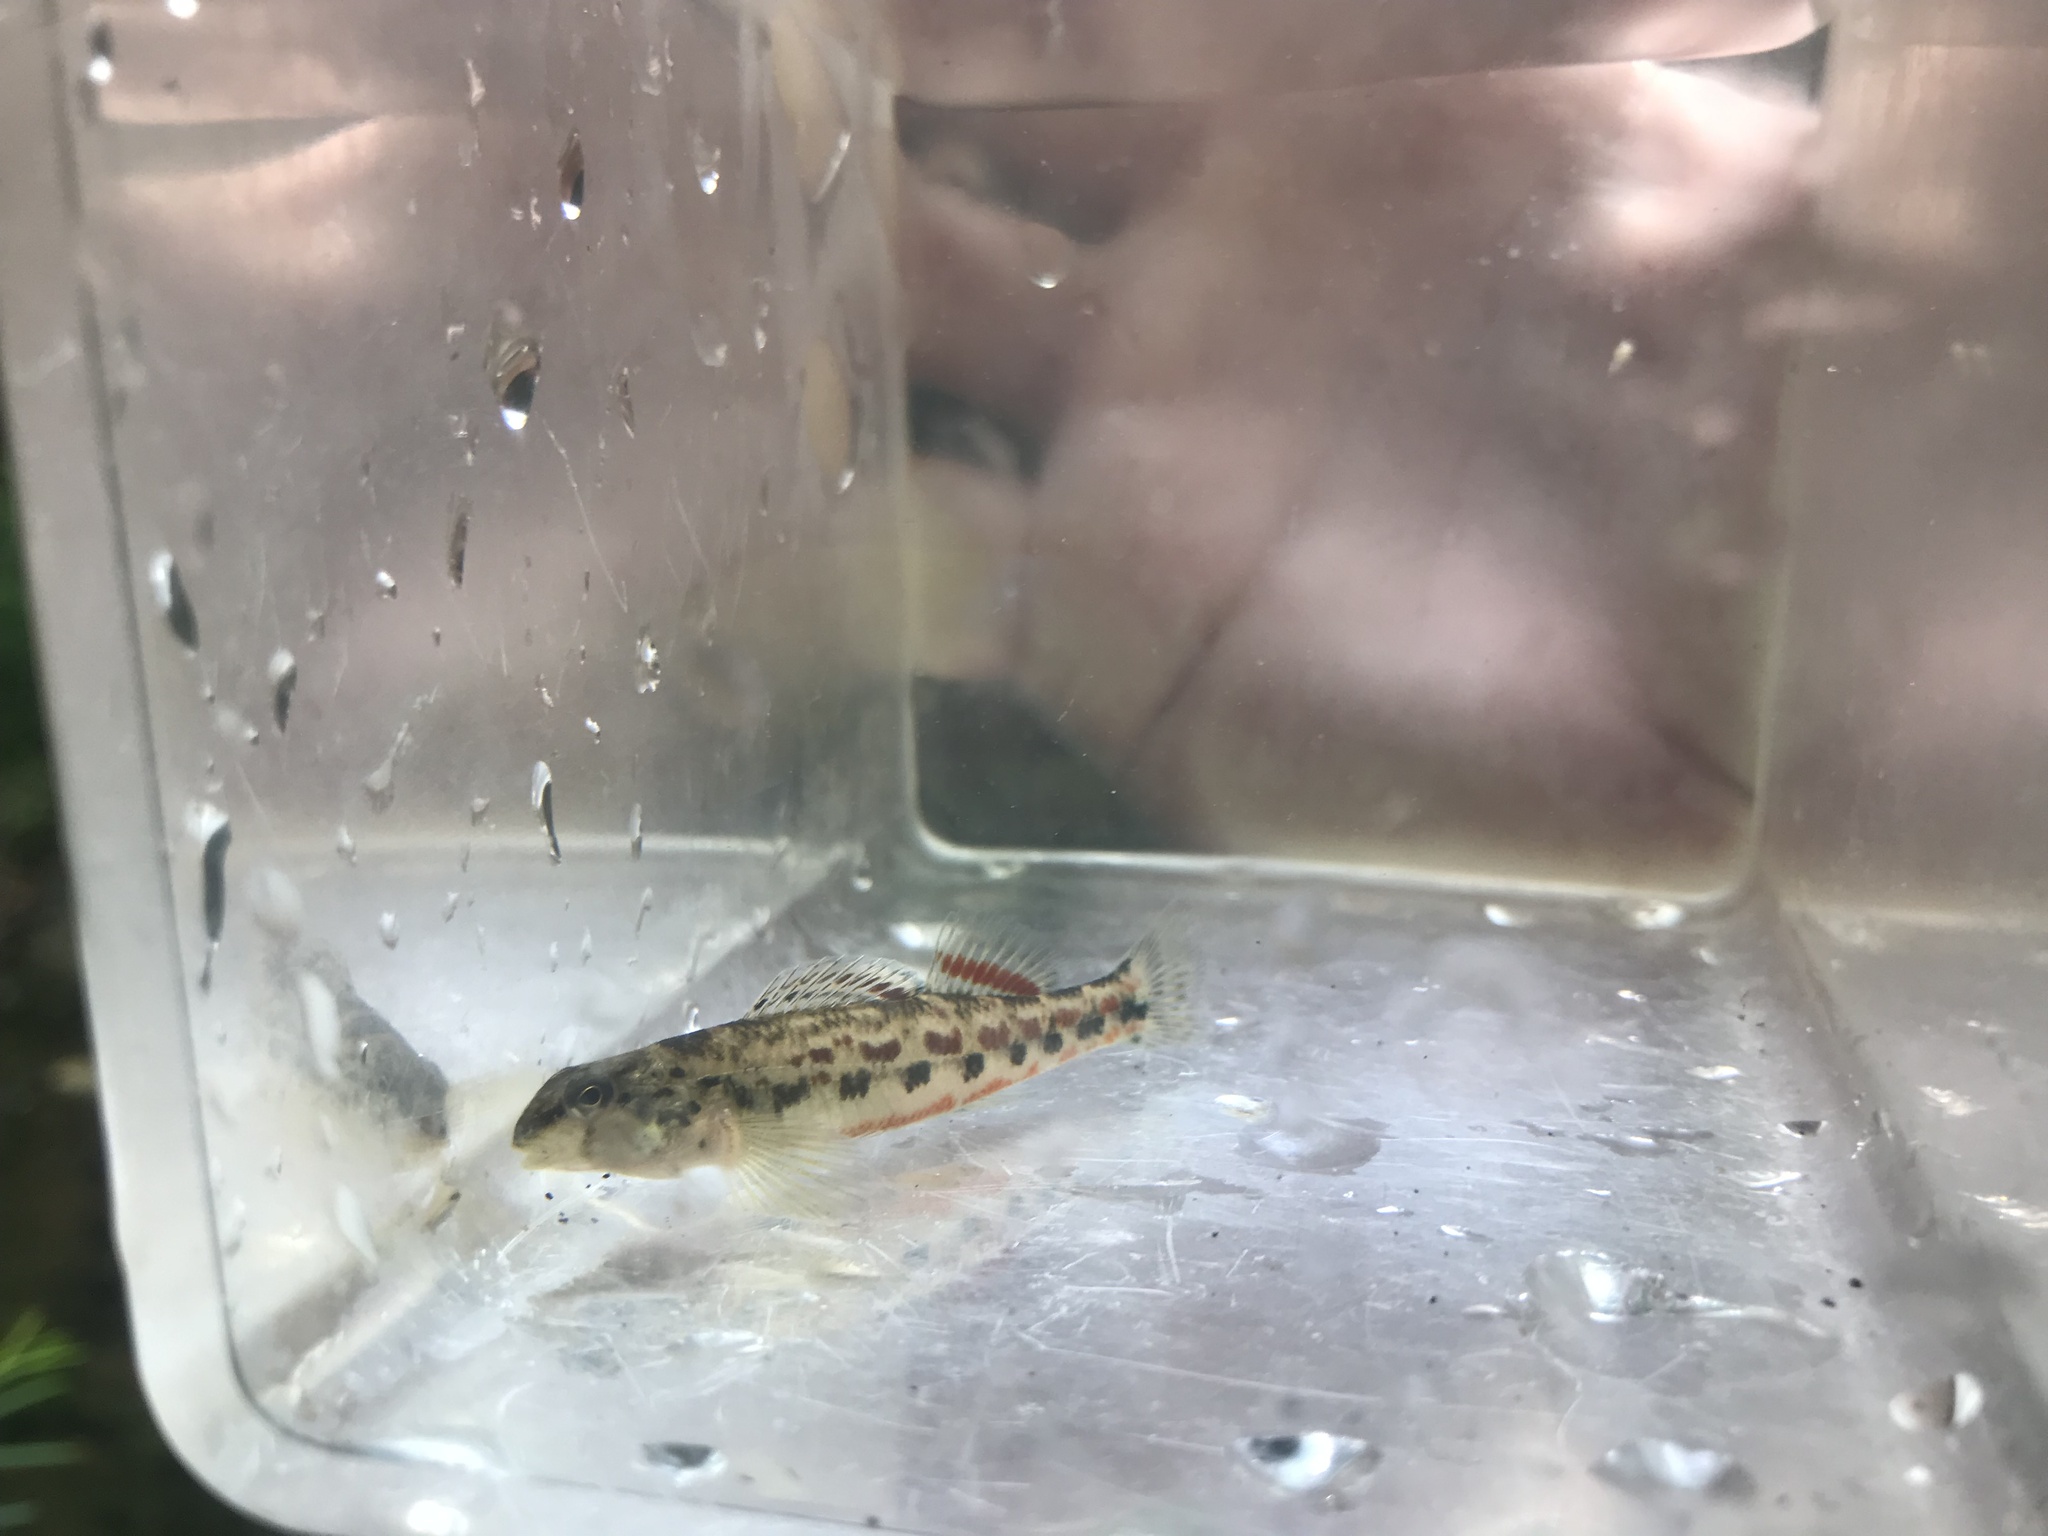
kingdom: Animalia
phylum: Chordata
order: Perciformes
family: Percidae
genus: Etheostoma
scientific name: Etheostoma ramseyi
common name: Alabama darter
